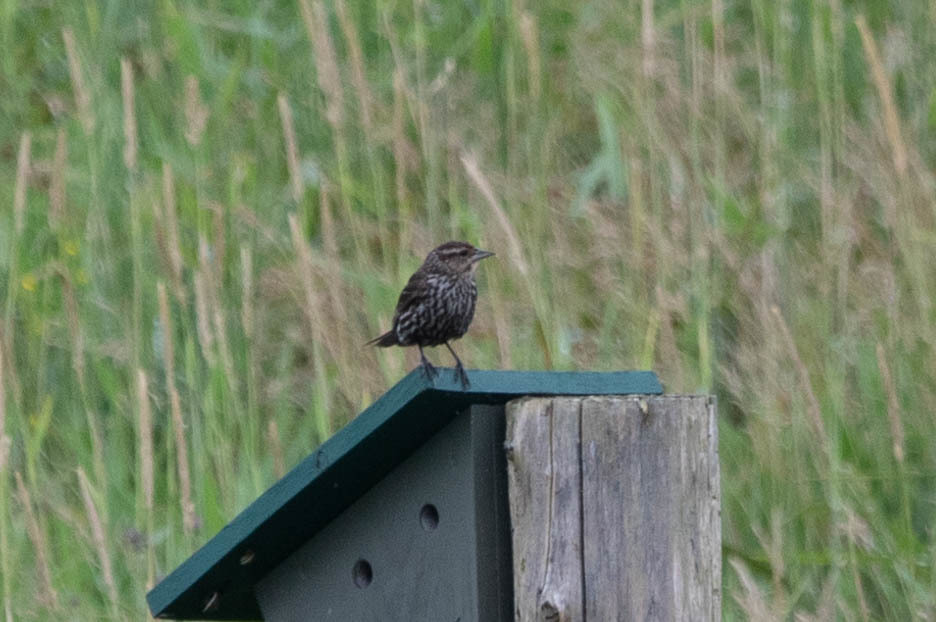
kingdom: Animalia
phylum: Chordata
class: Aves
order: Passeriformes
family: Icteridae
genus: Agelaius
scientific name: Agelaius phoeniceus
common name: Red-winged blackbird
